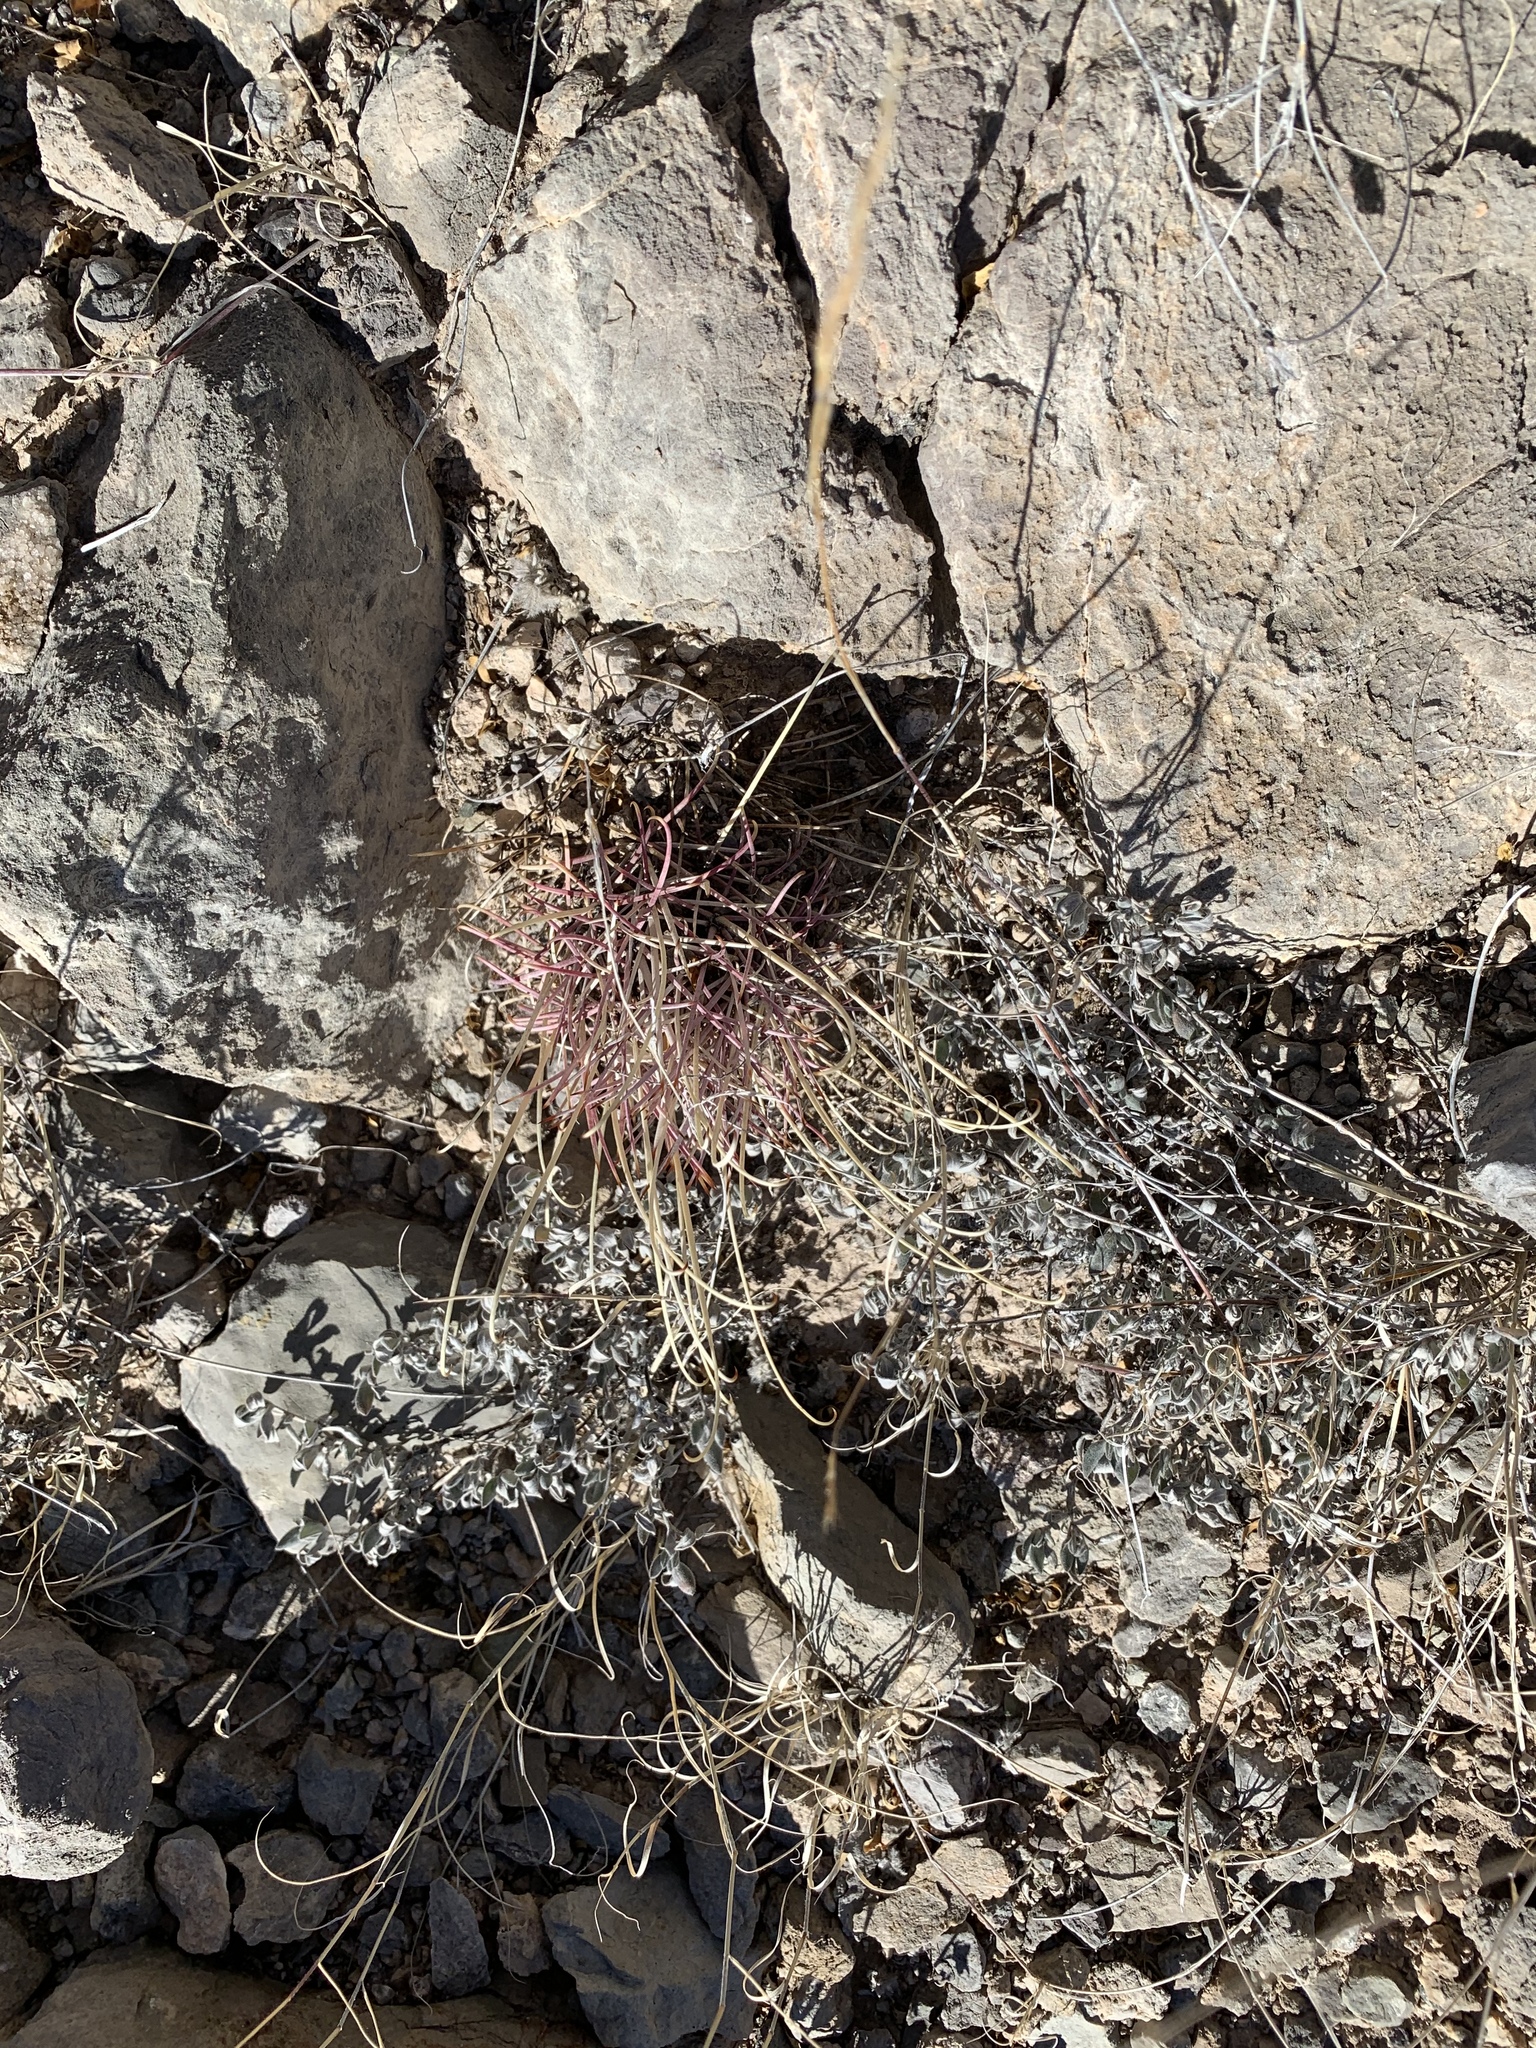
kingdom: Plantae
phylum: Tracheophyta
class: Magnoliopsida
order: Caryophyllales
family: Cactaceae
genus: Ferocactus
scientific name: Ferocactus uncinatus
